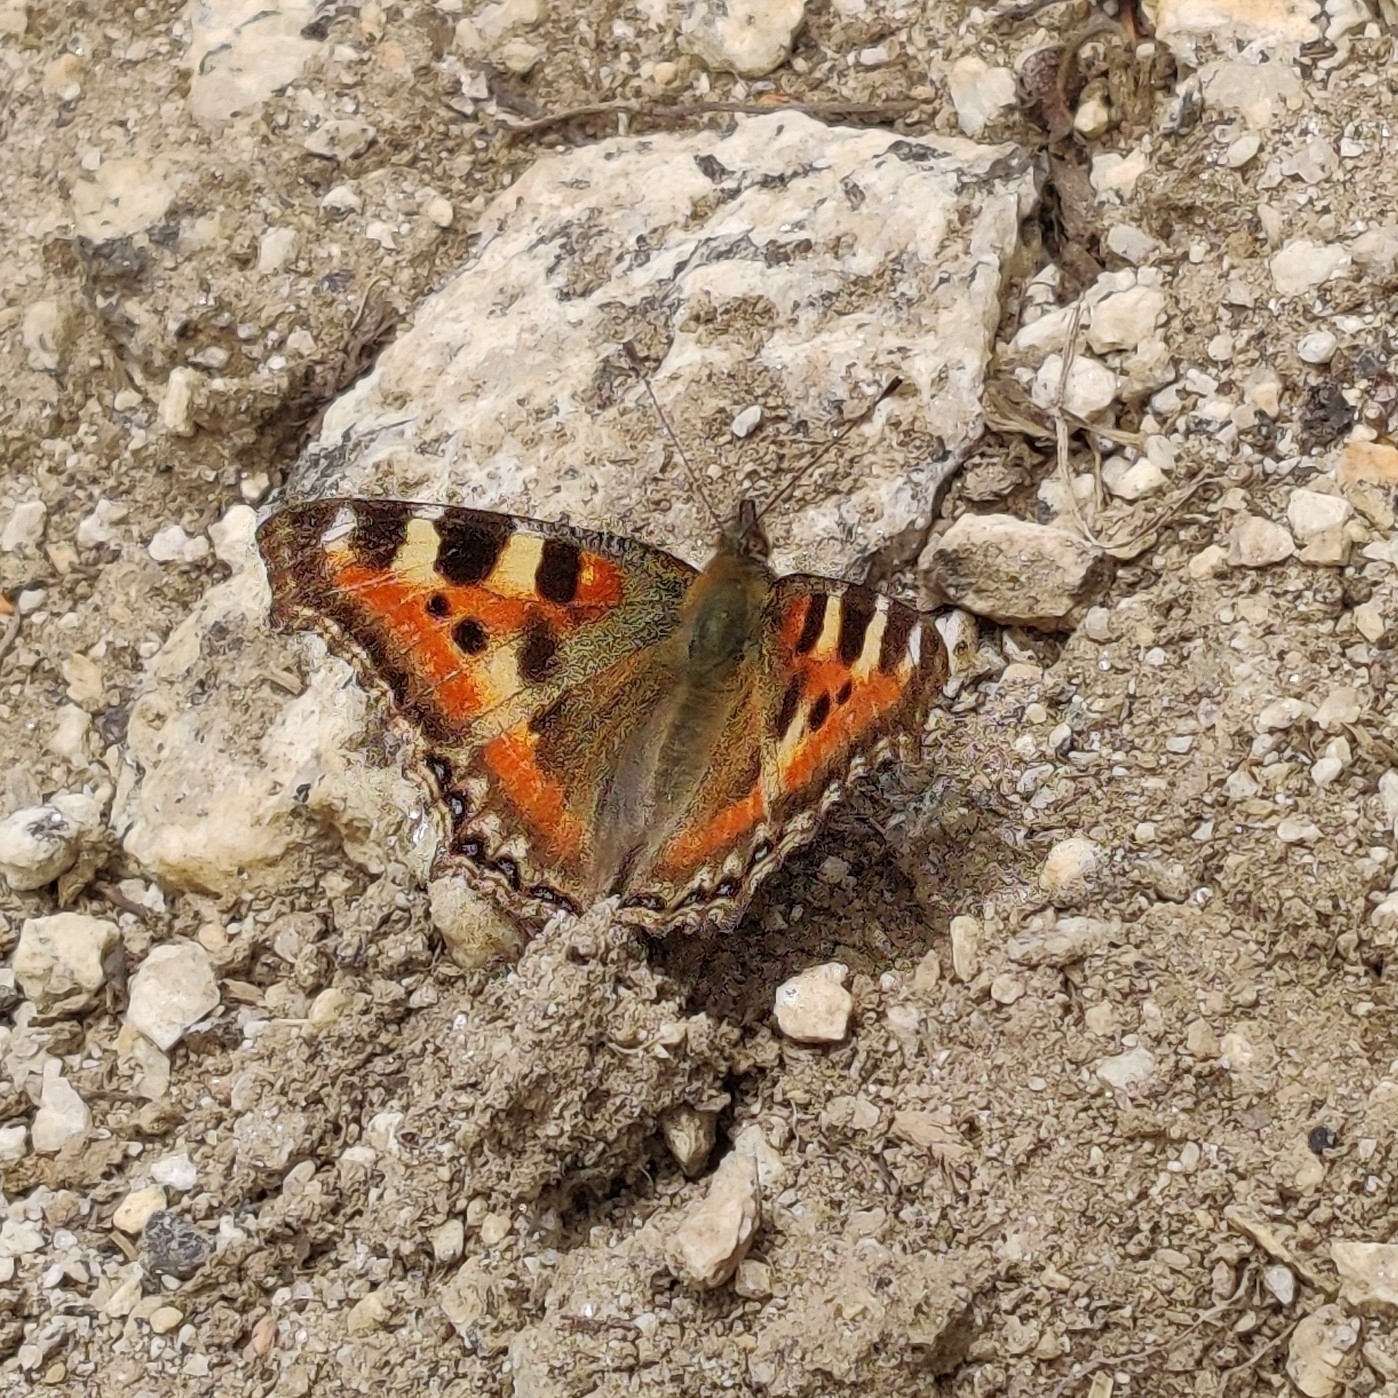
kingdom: Animalia
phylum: Arthropoda
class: Insecta
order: Lepidoptera
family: Nymphalidae
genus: Aglais
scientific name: Aglais caschmirensis
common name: Indian tortoiseshell
